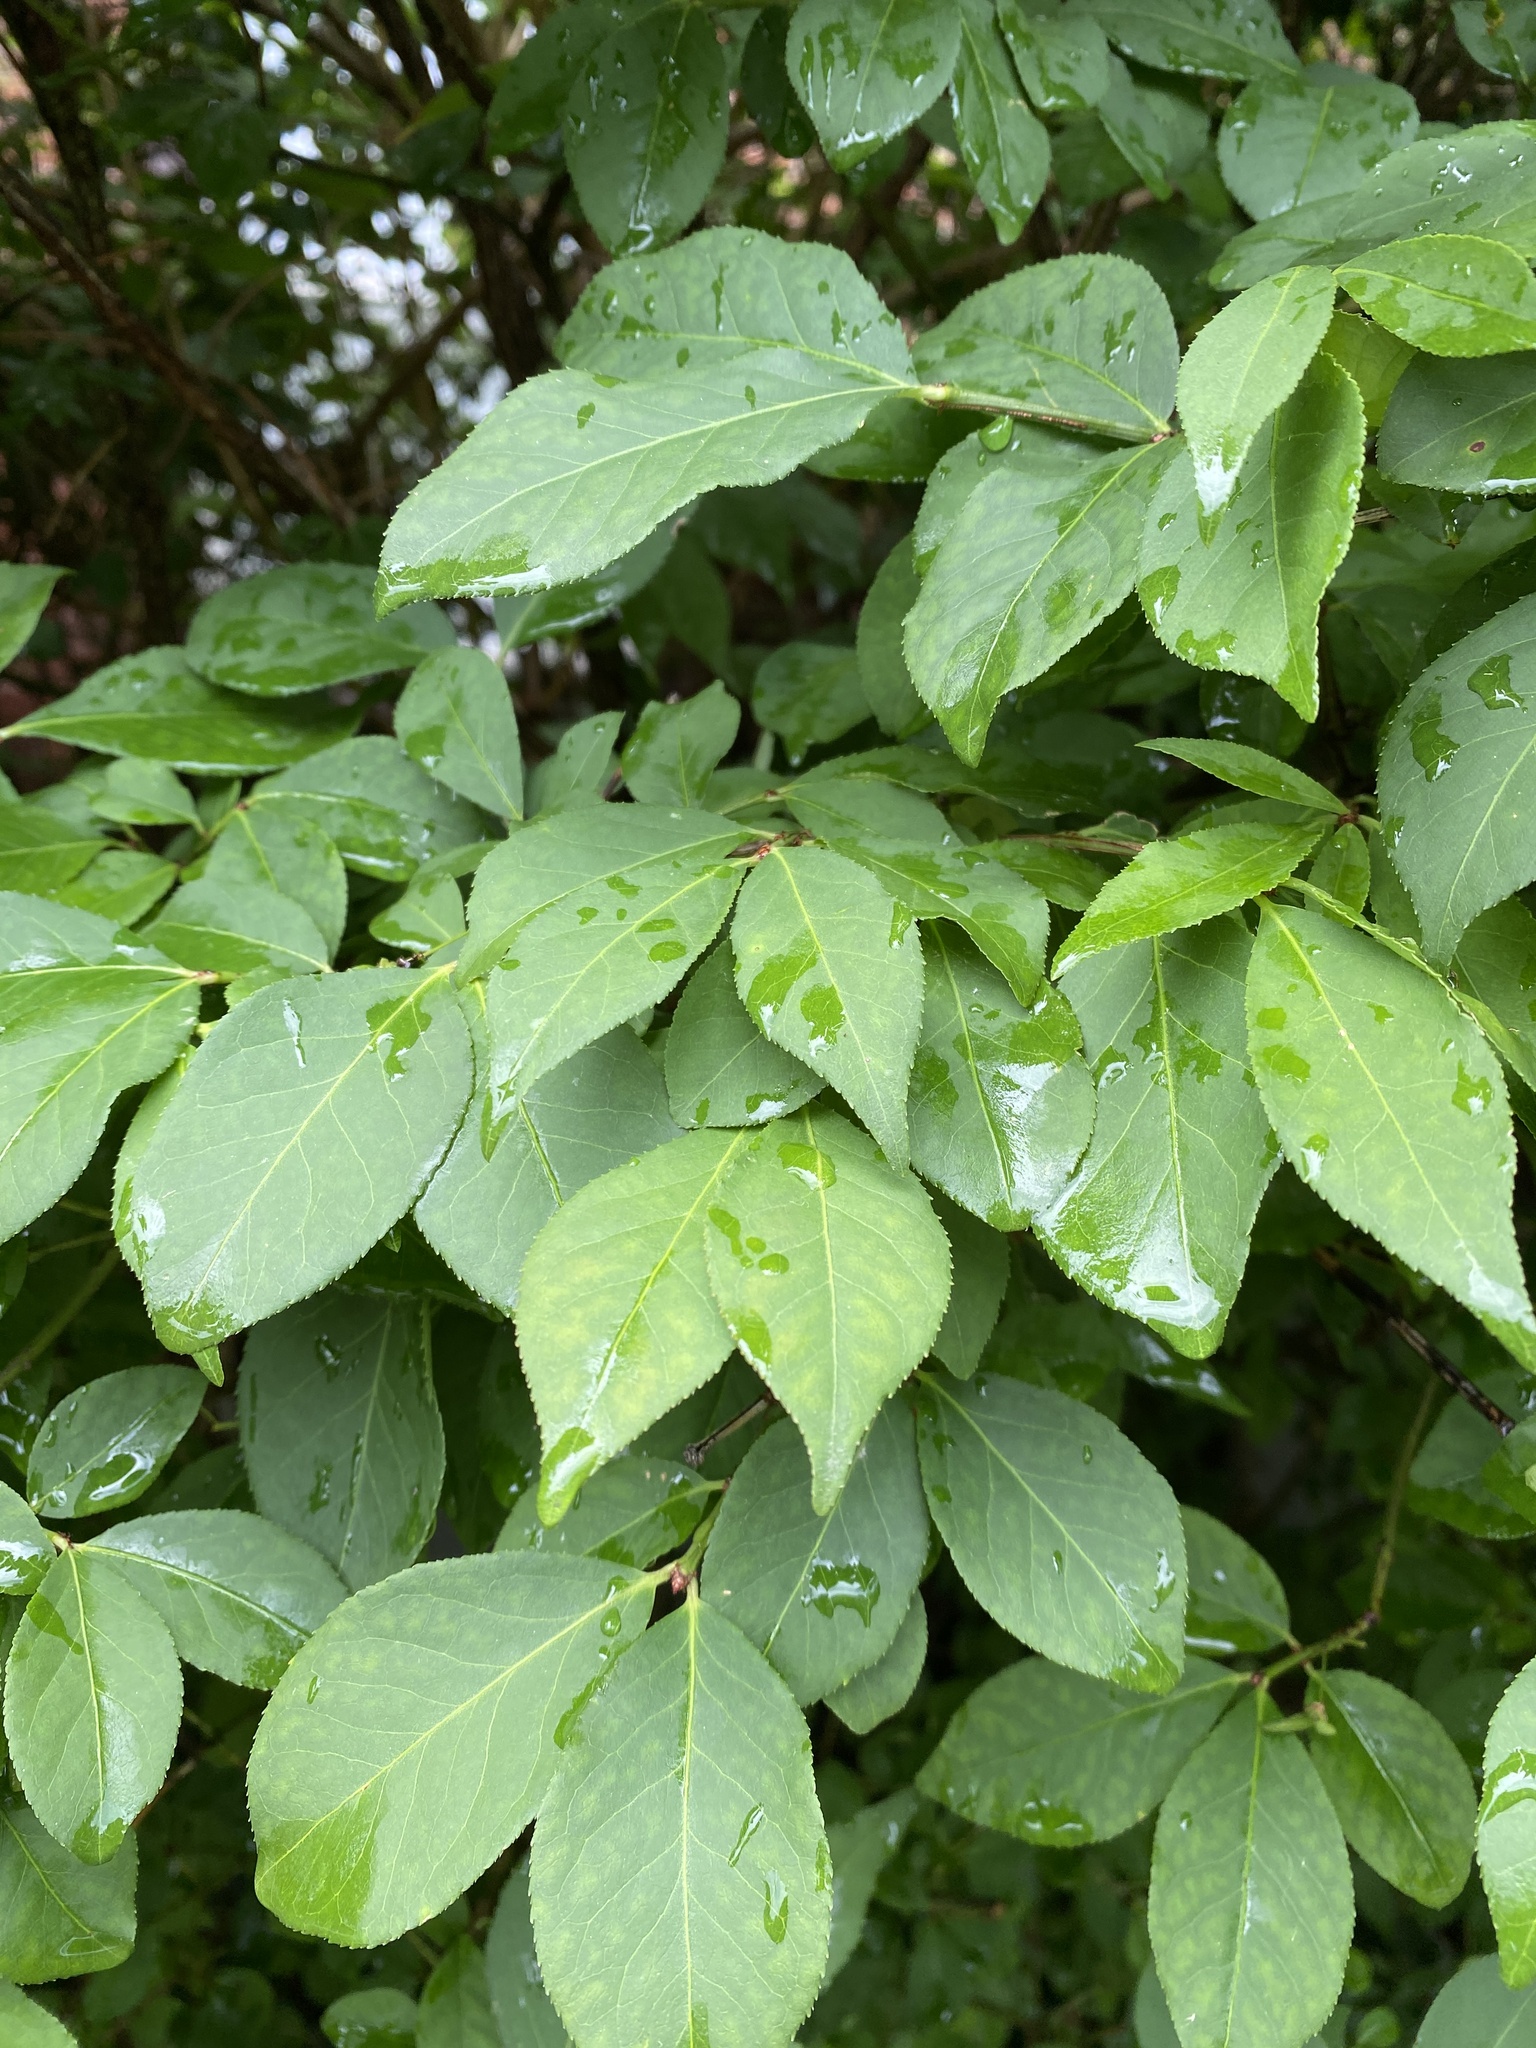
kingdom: Plantae
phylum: Tracheophyta
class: Magnoliopsida
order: Celastrales
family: Celastraceae
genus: Euonymus
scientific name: Euonymus alatus
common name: Winged euonymus
